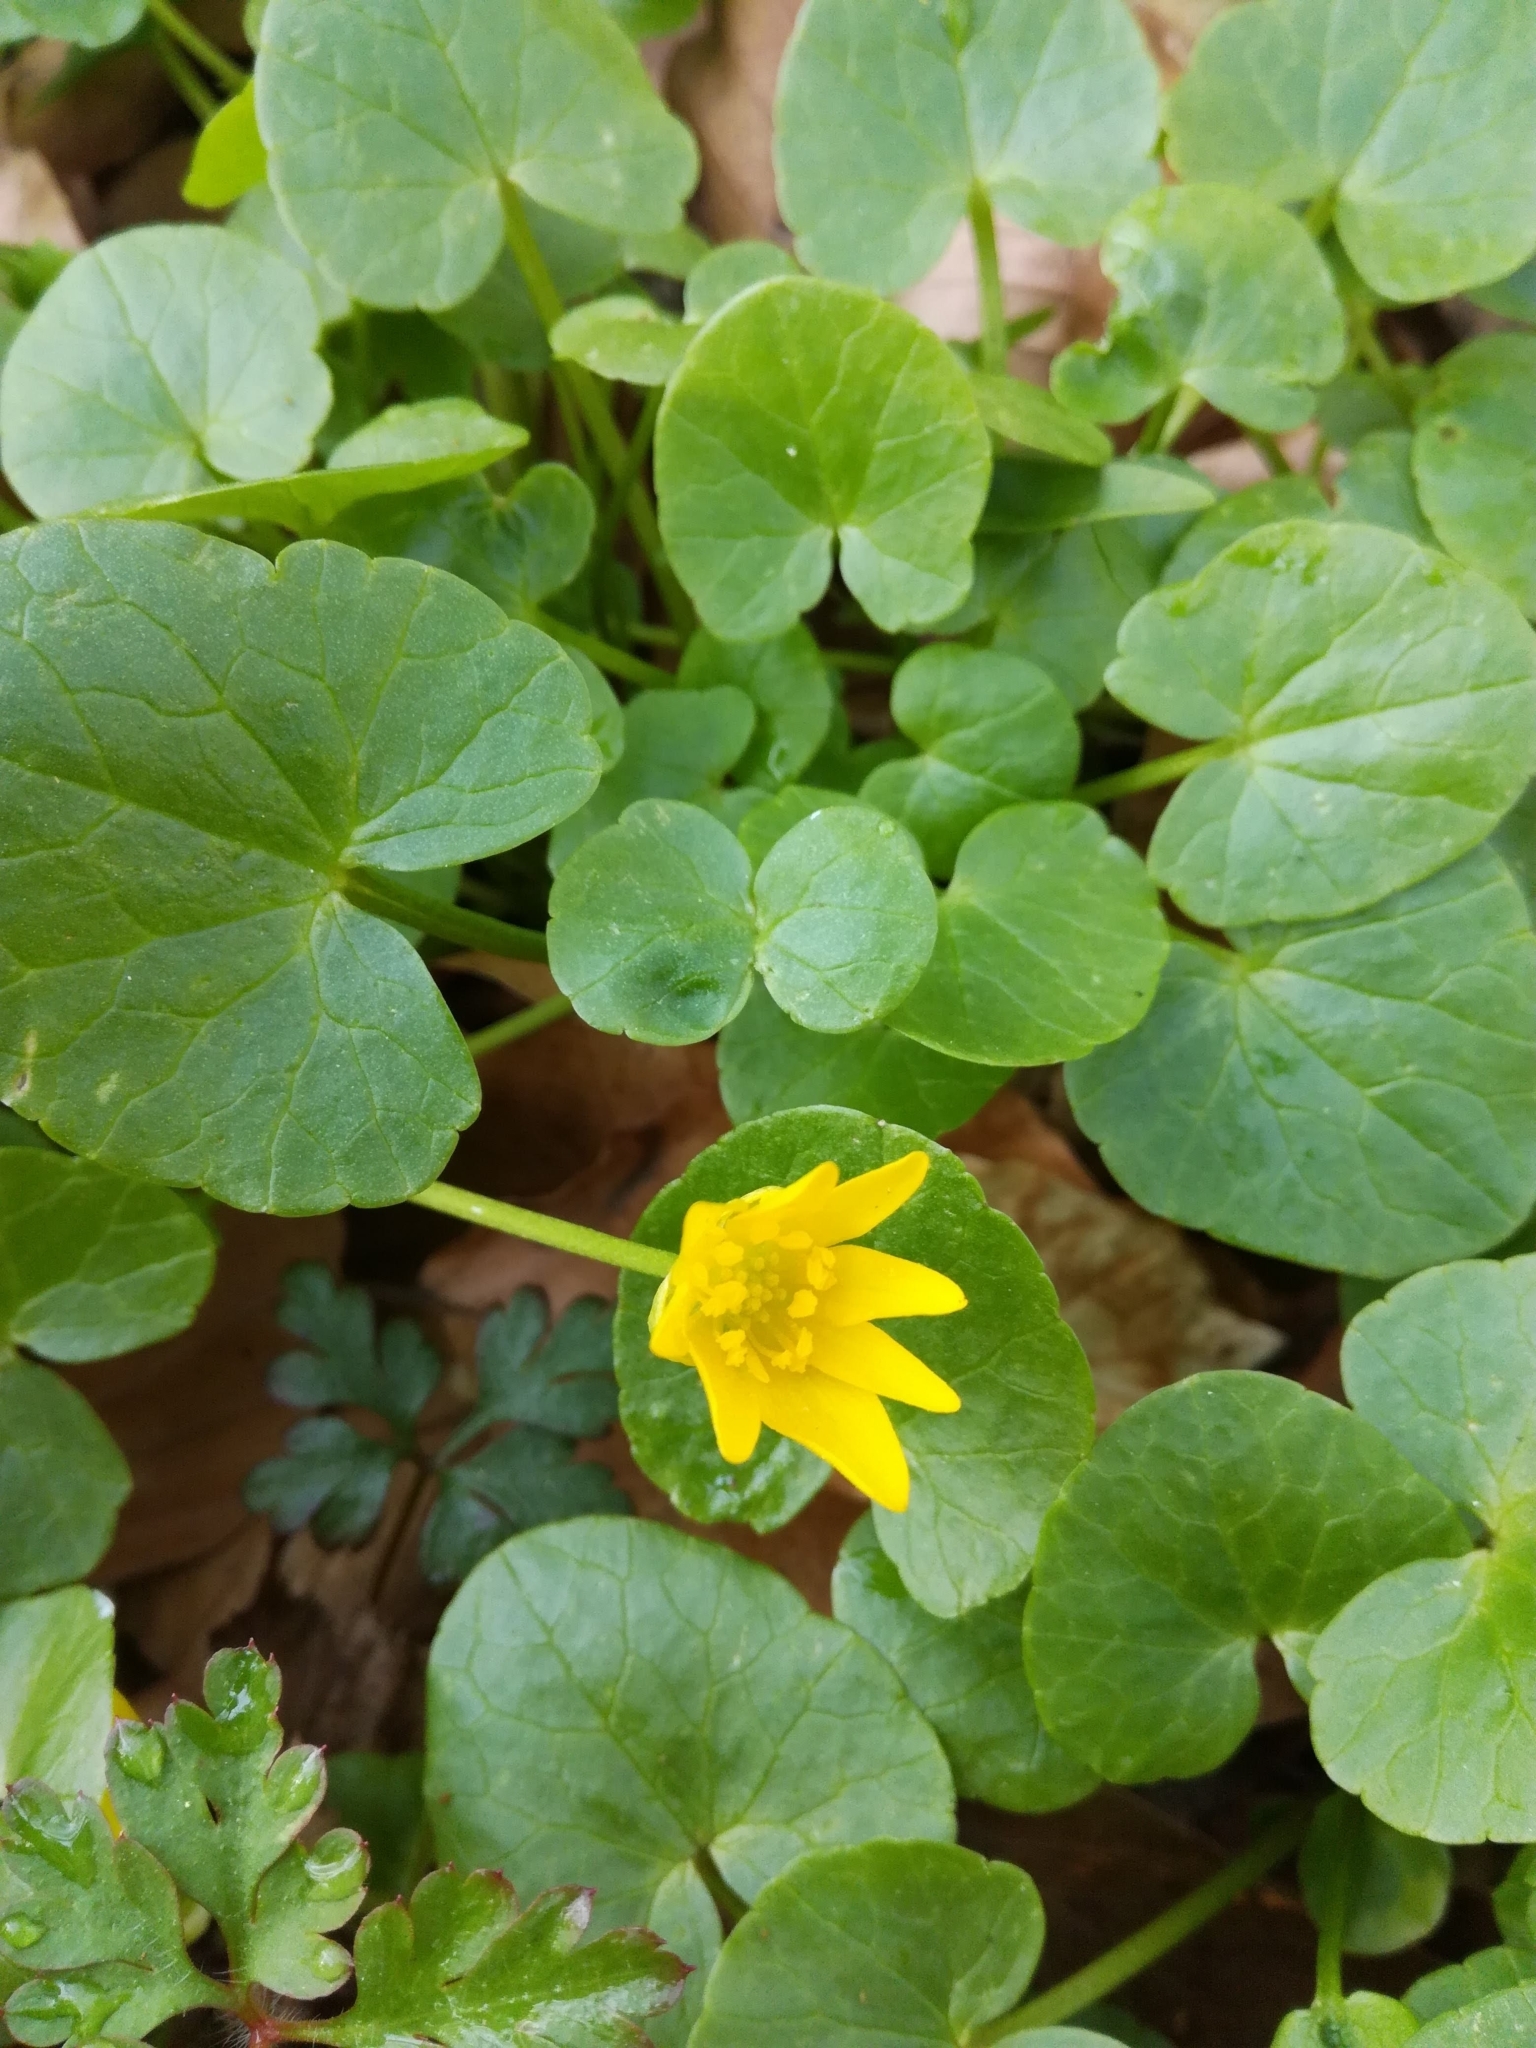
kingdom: Plantae
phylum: Tracheophyta
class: Magnoliopsida
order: Ranunculales
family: Ranunculaceae
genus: Ficaria
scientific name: Ficaria verna
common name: Lesser celandine
